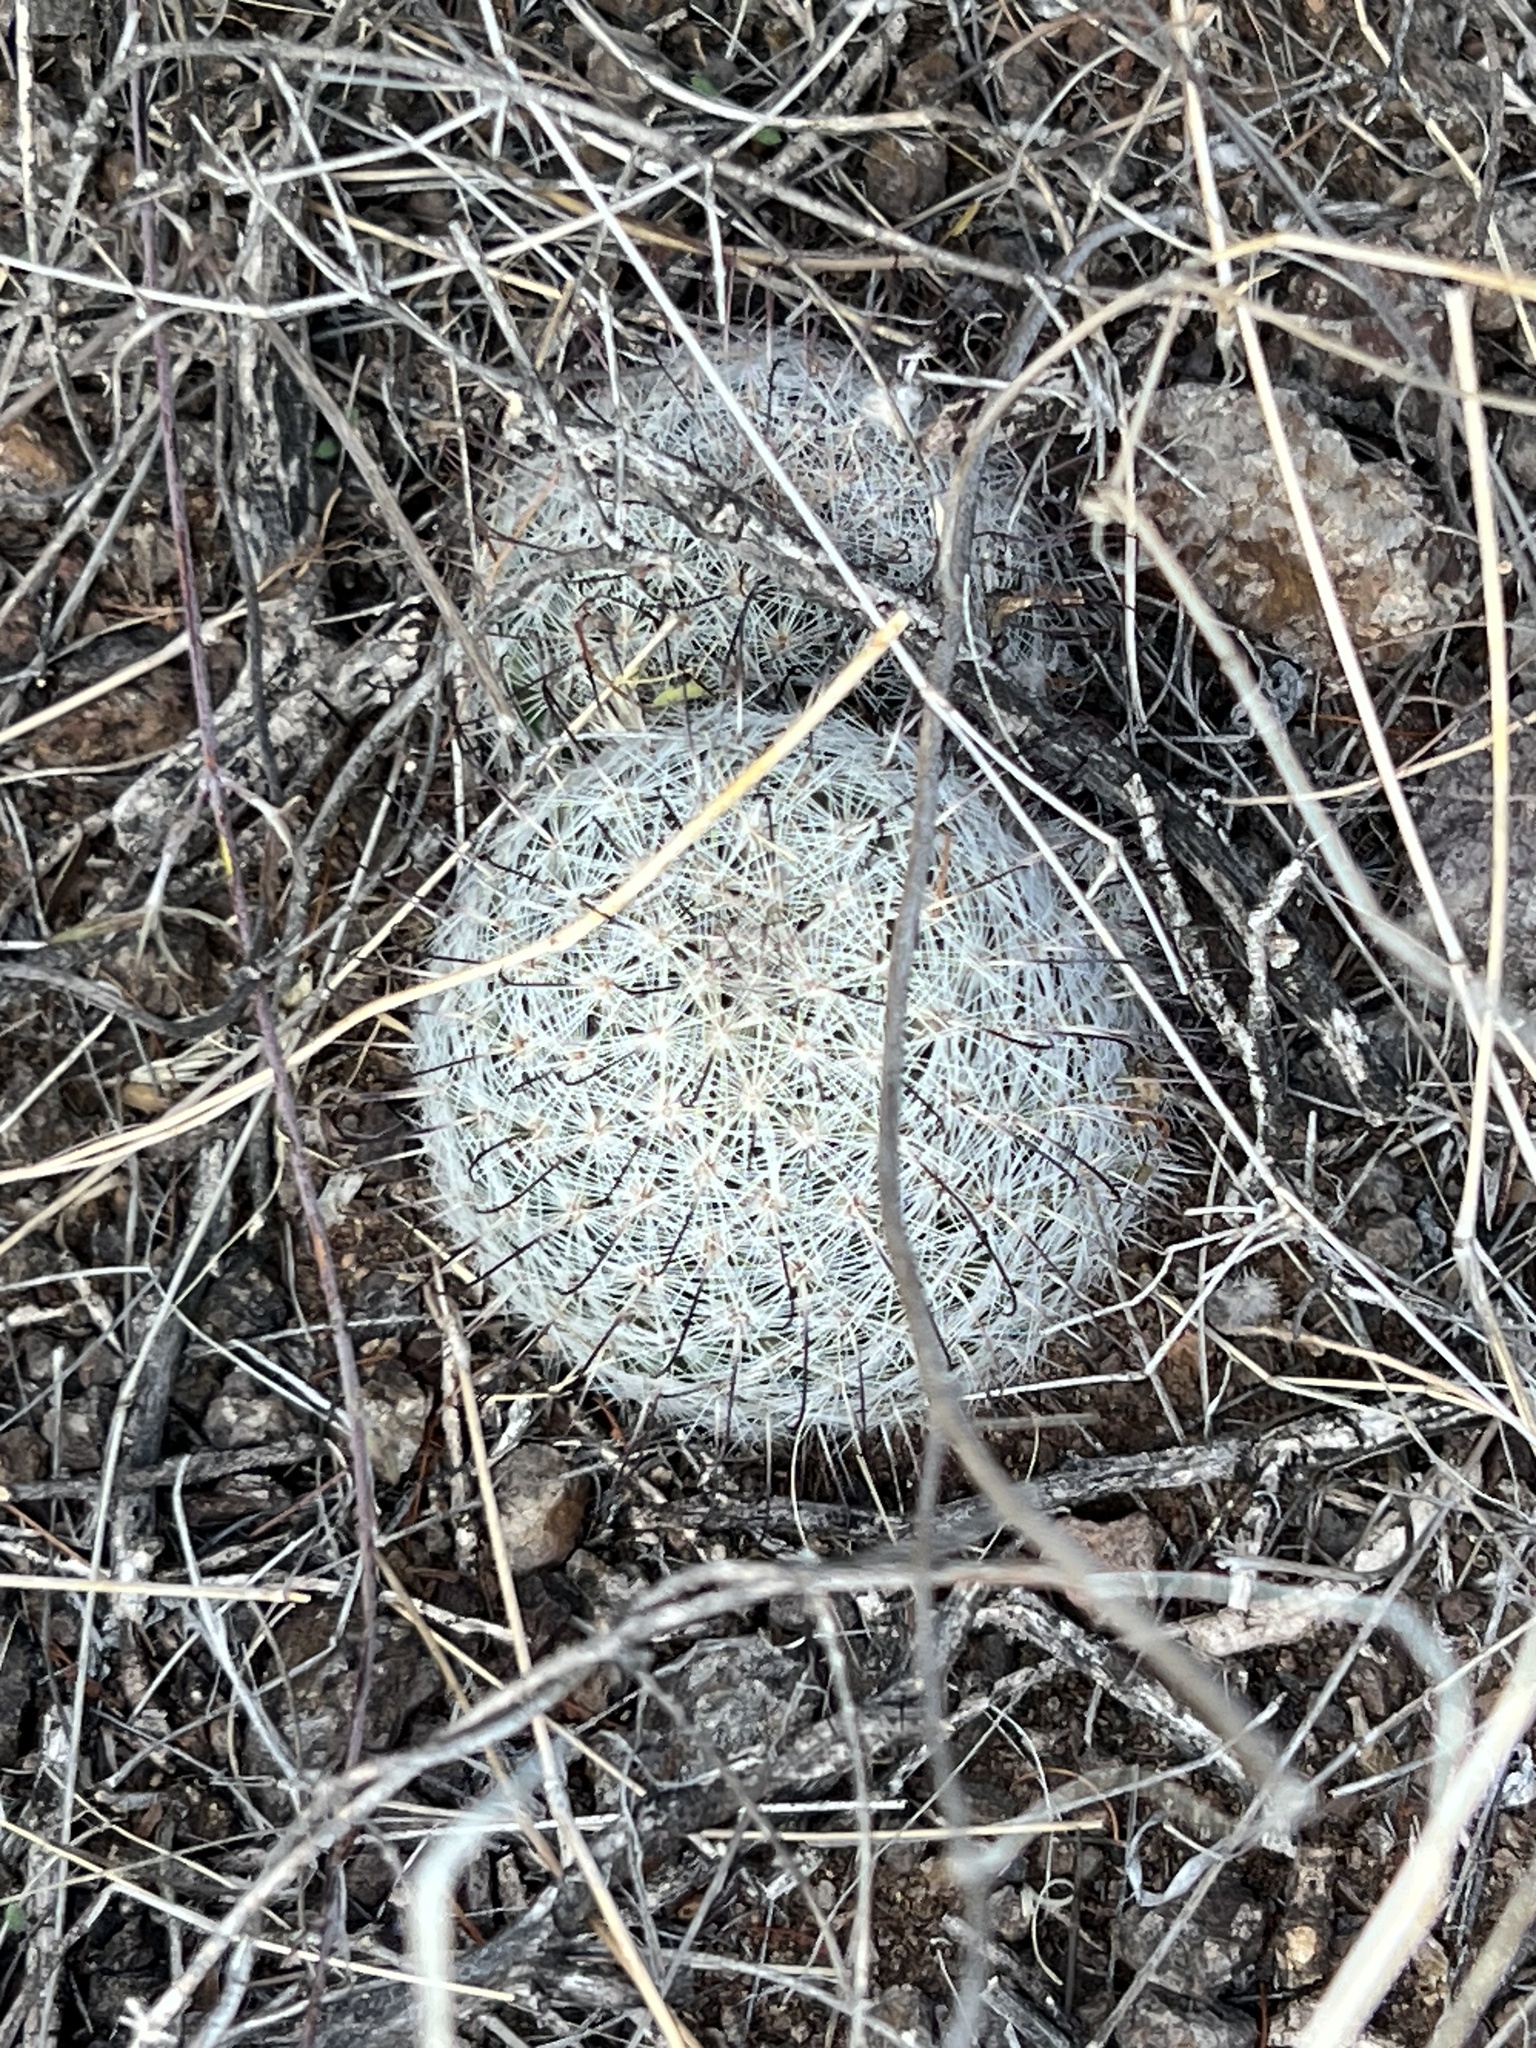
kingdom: Plantae
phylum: Tracheophyta
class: Magnoliopsida
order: Caryophyllales
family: Cactaceae
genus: Cochemiea
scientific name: Cochemiea grahamii
